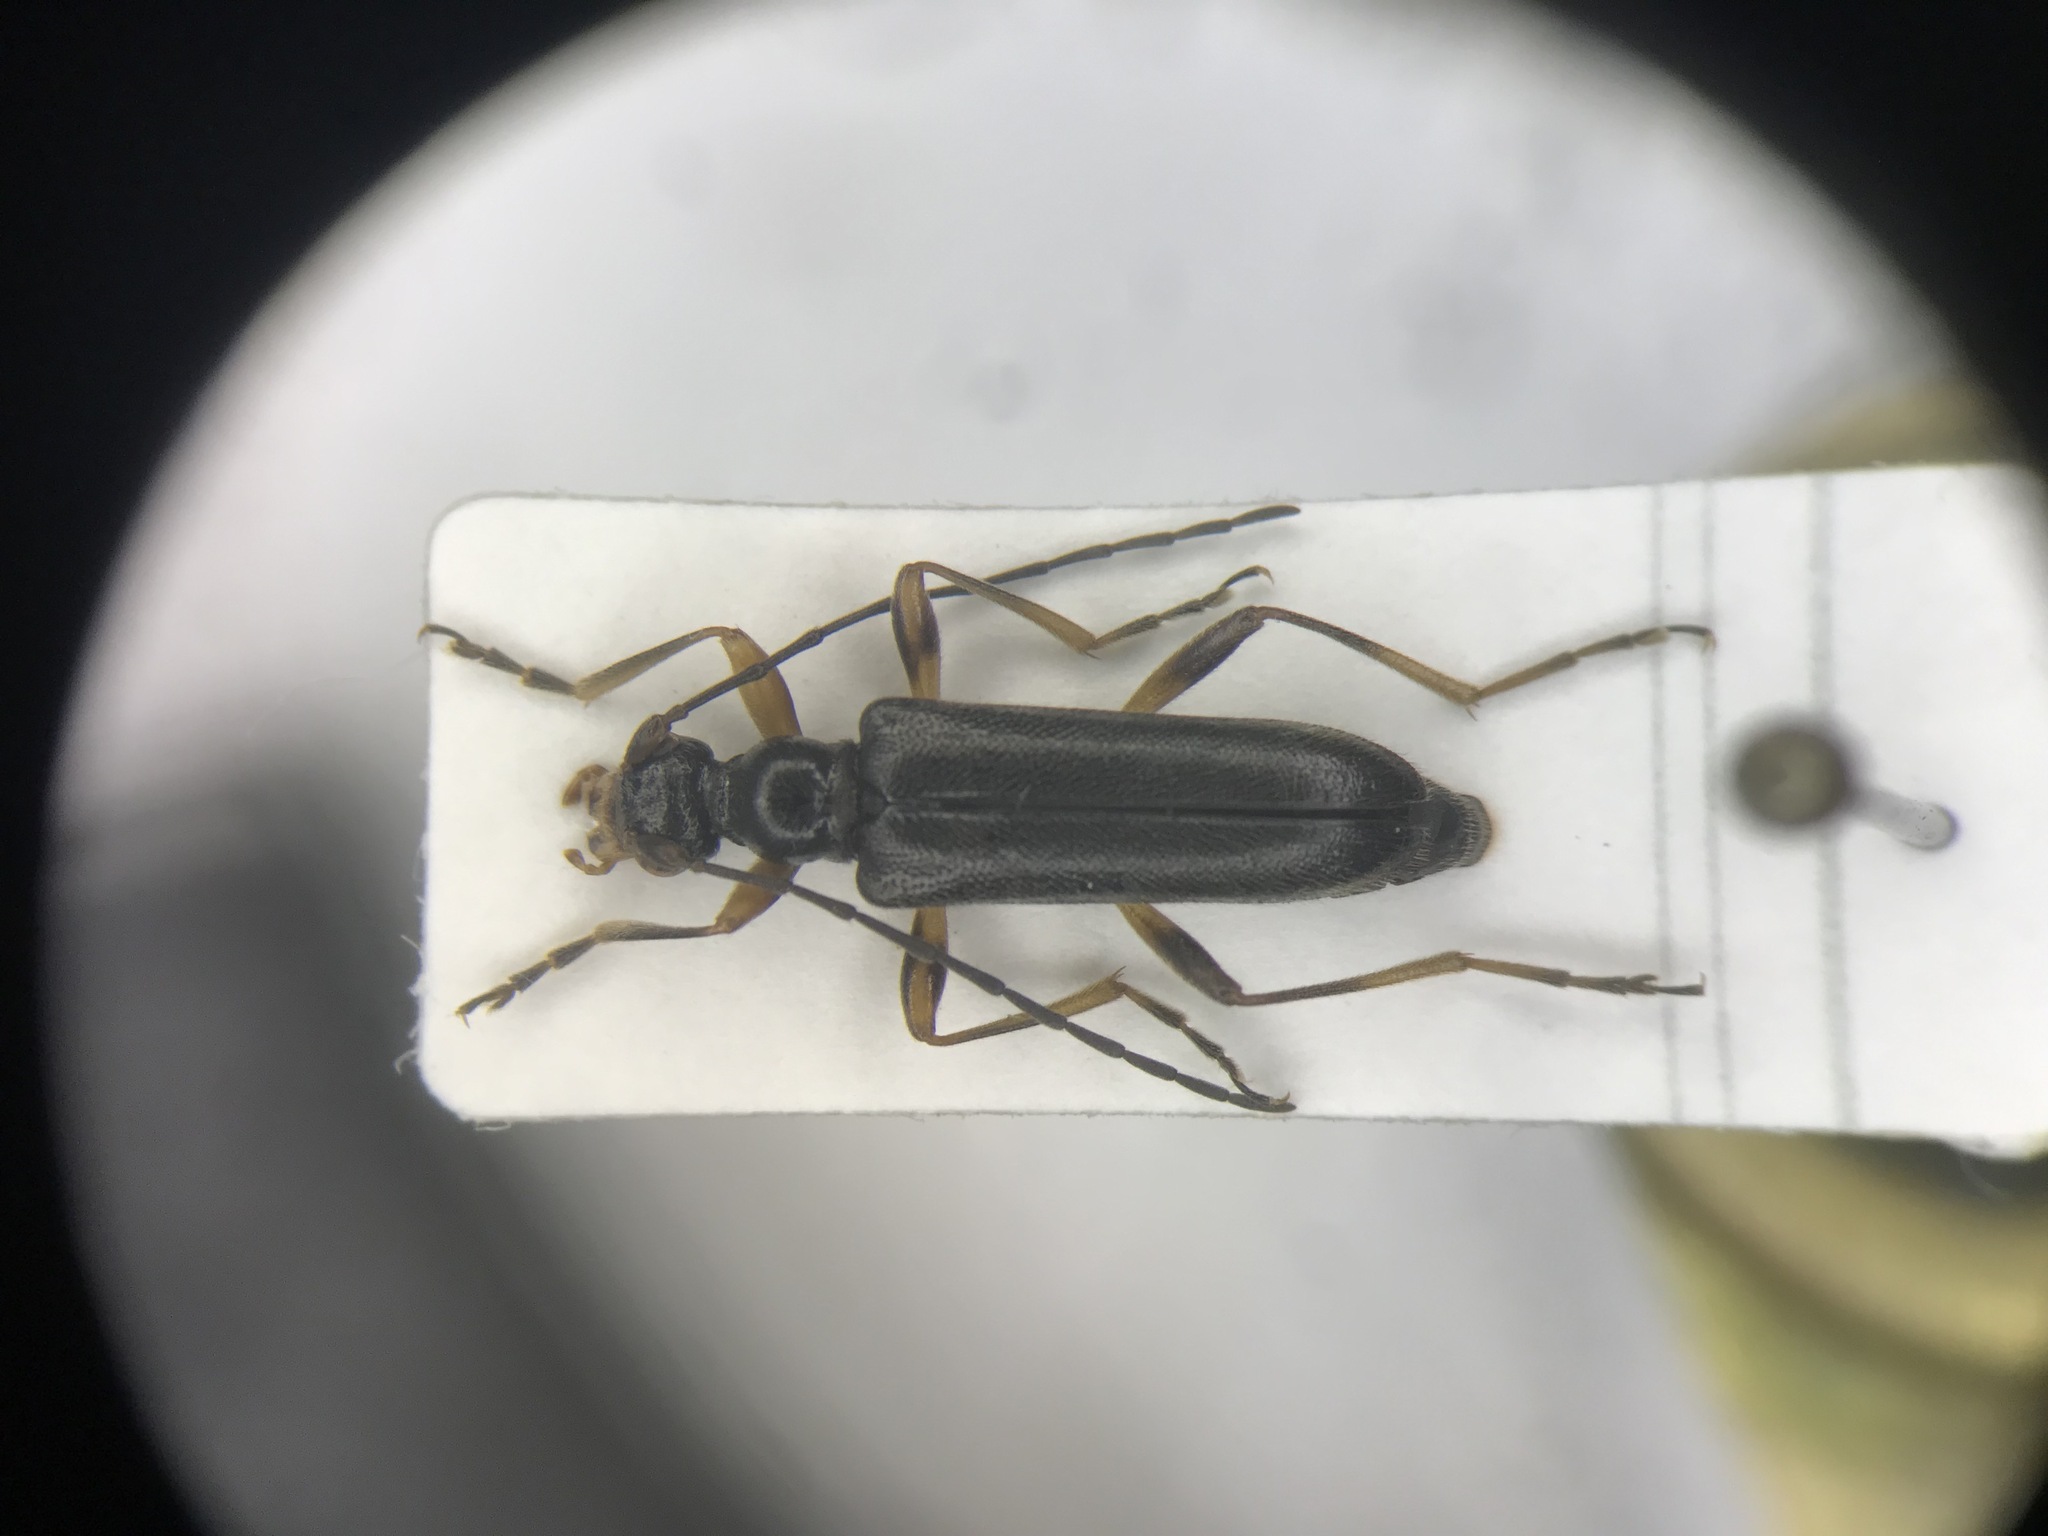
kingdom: Animalia
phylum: Arthropoda
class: Insecta
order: Coleoptera
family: Cerambycidae
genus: Pidonia
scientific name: Pidonia ruficollis
